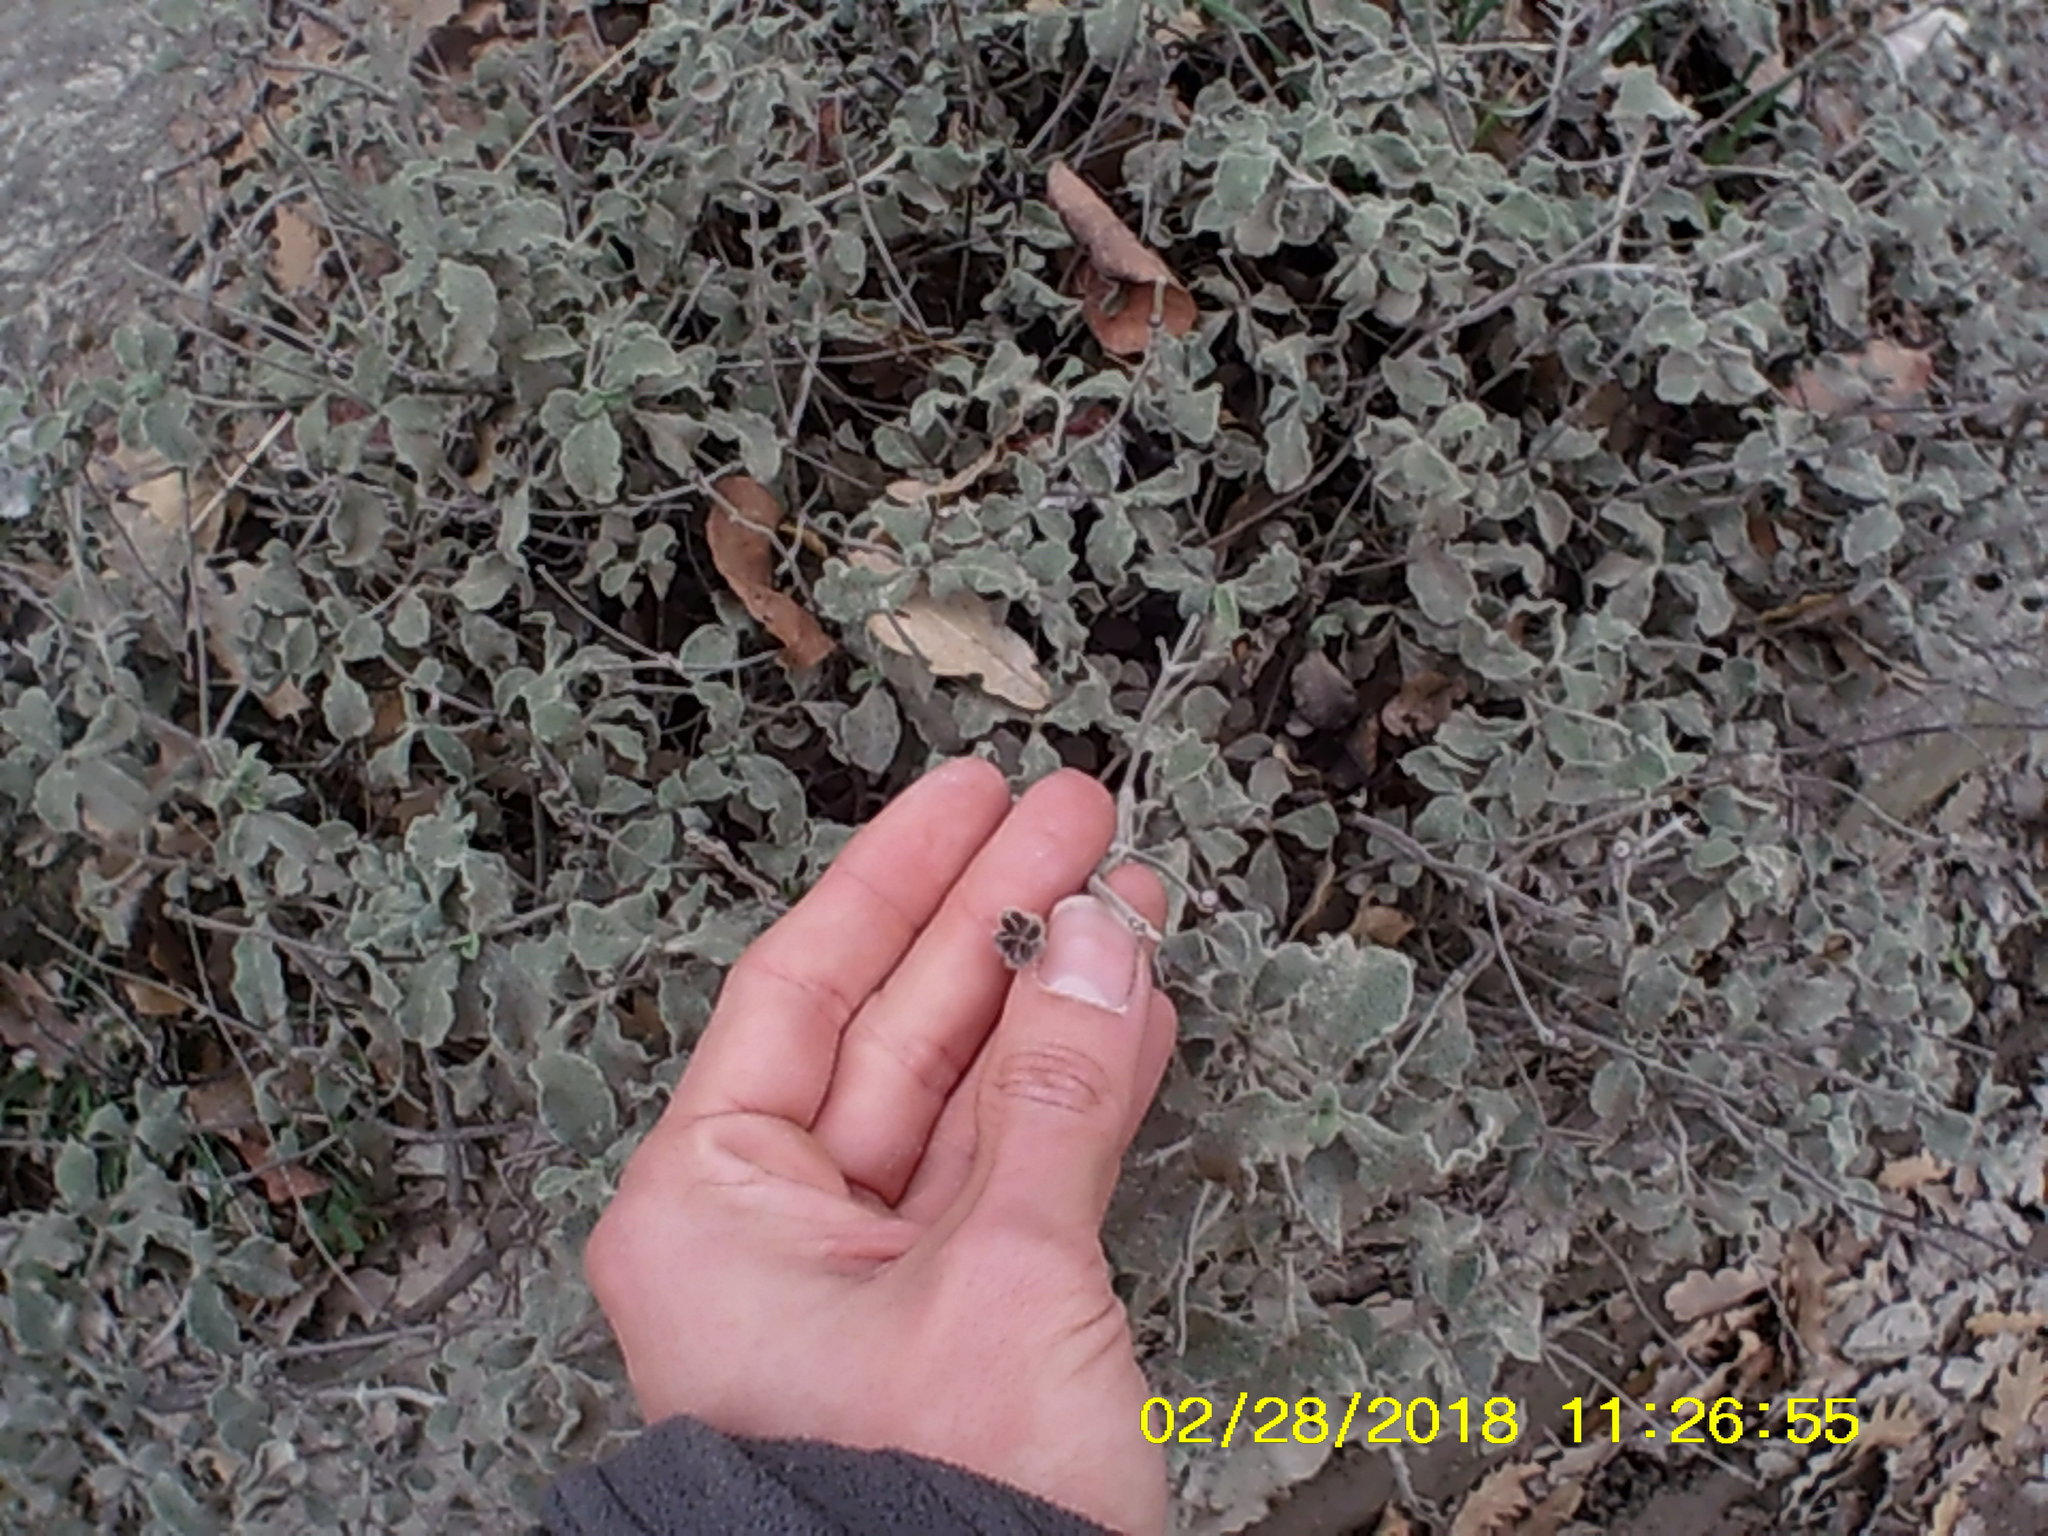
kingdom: Plantae
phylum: Tracheophyta
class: Magnoliopsida
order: Malvales
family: Cistaceae
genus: Cistus
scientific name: Cistus tauricus
